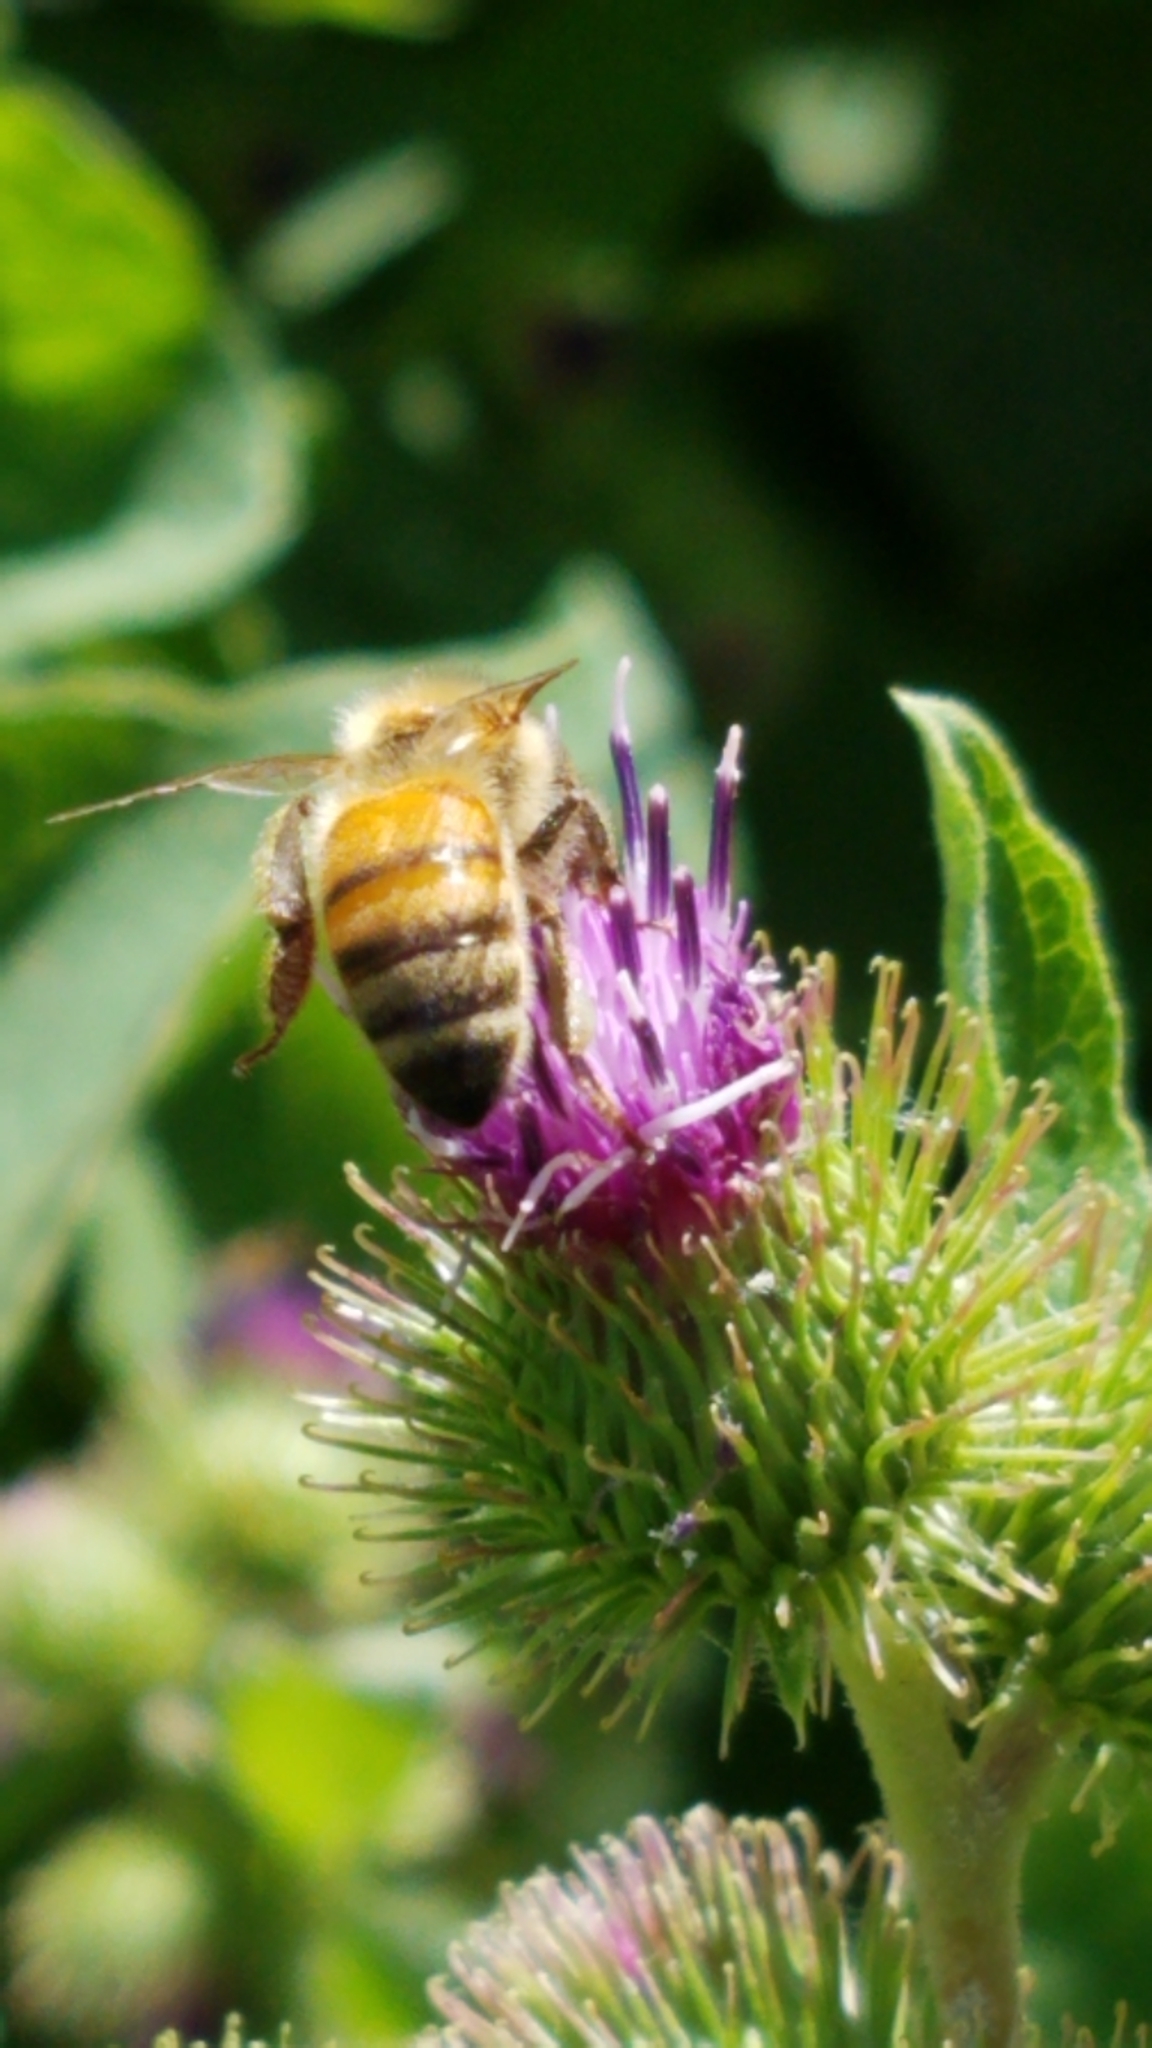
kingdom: Animalia
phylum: Arthropoda
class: Insecta
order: Hymenoptera
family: Apidae
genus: Apis
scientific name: Apis mellifera
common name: Honey bee
